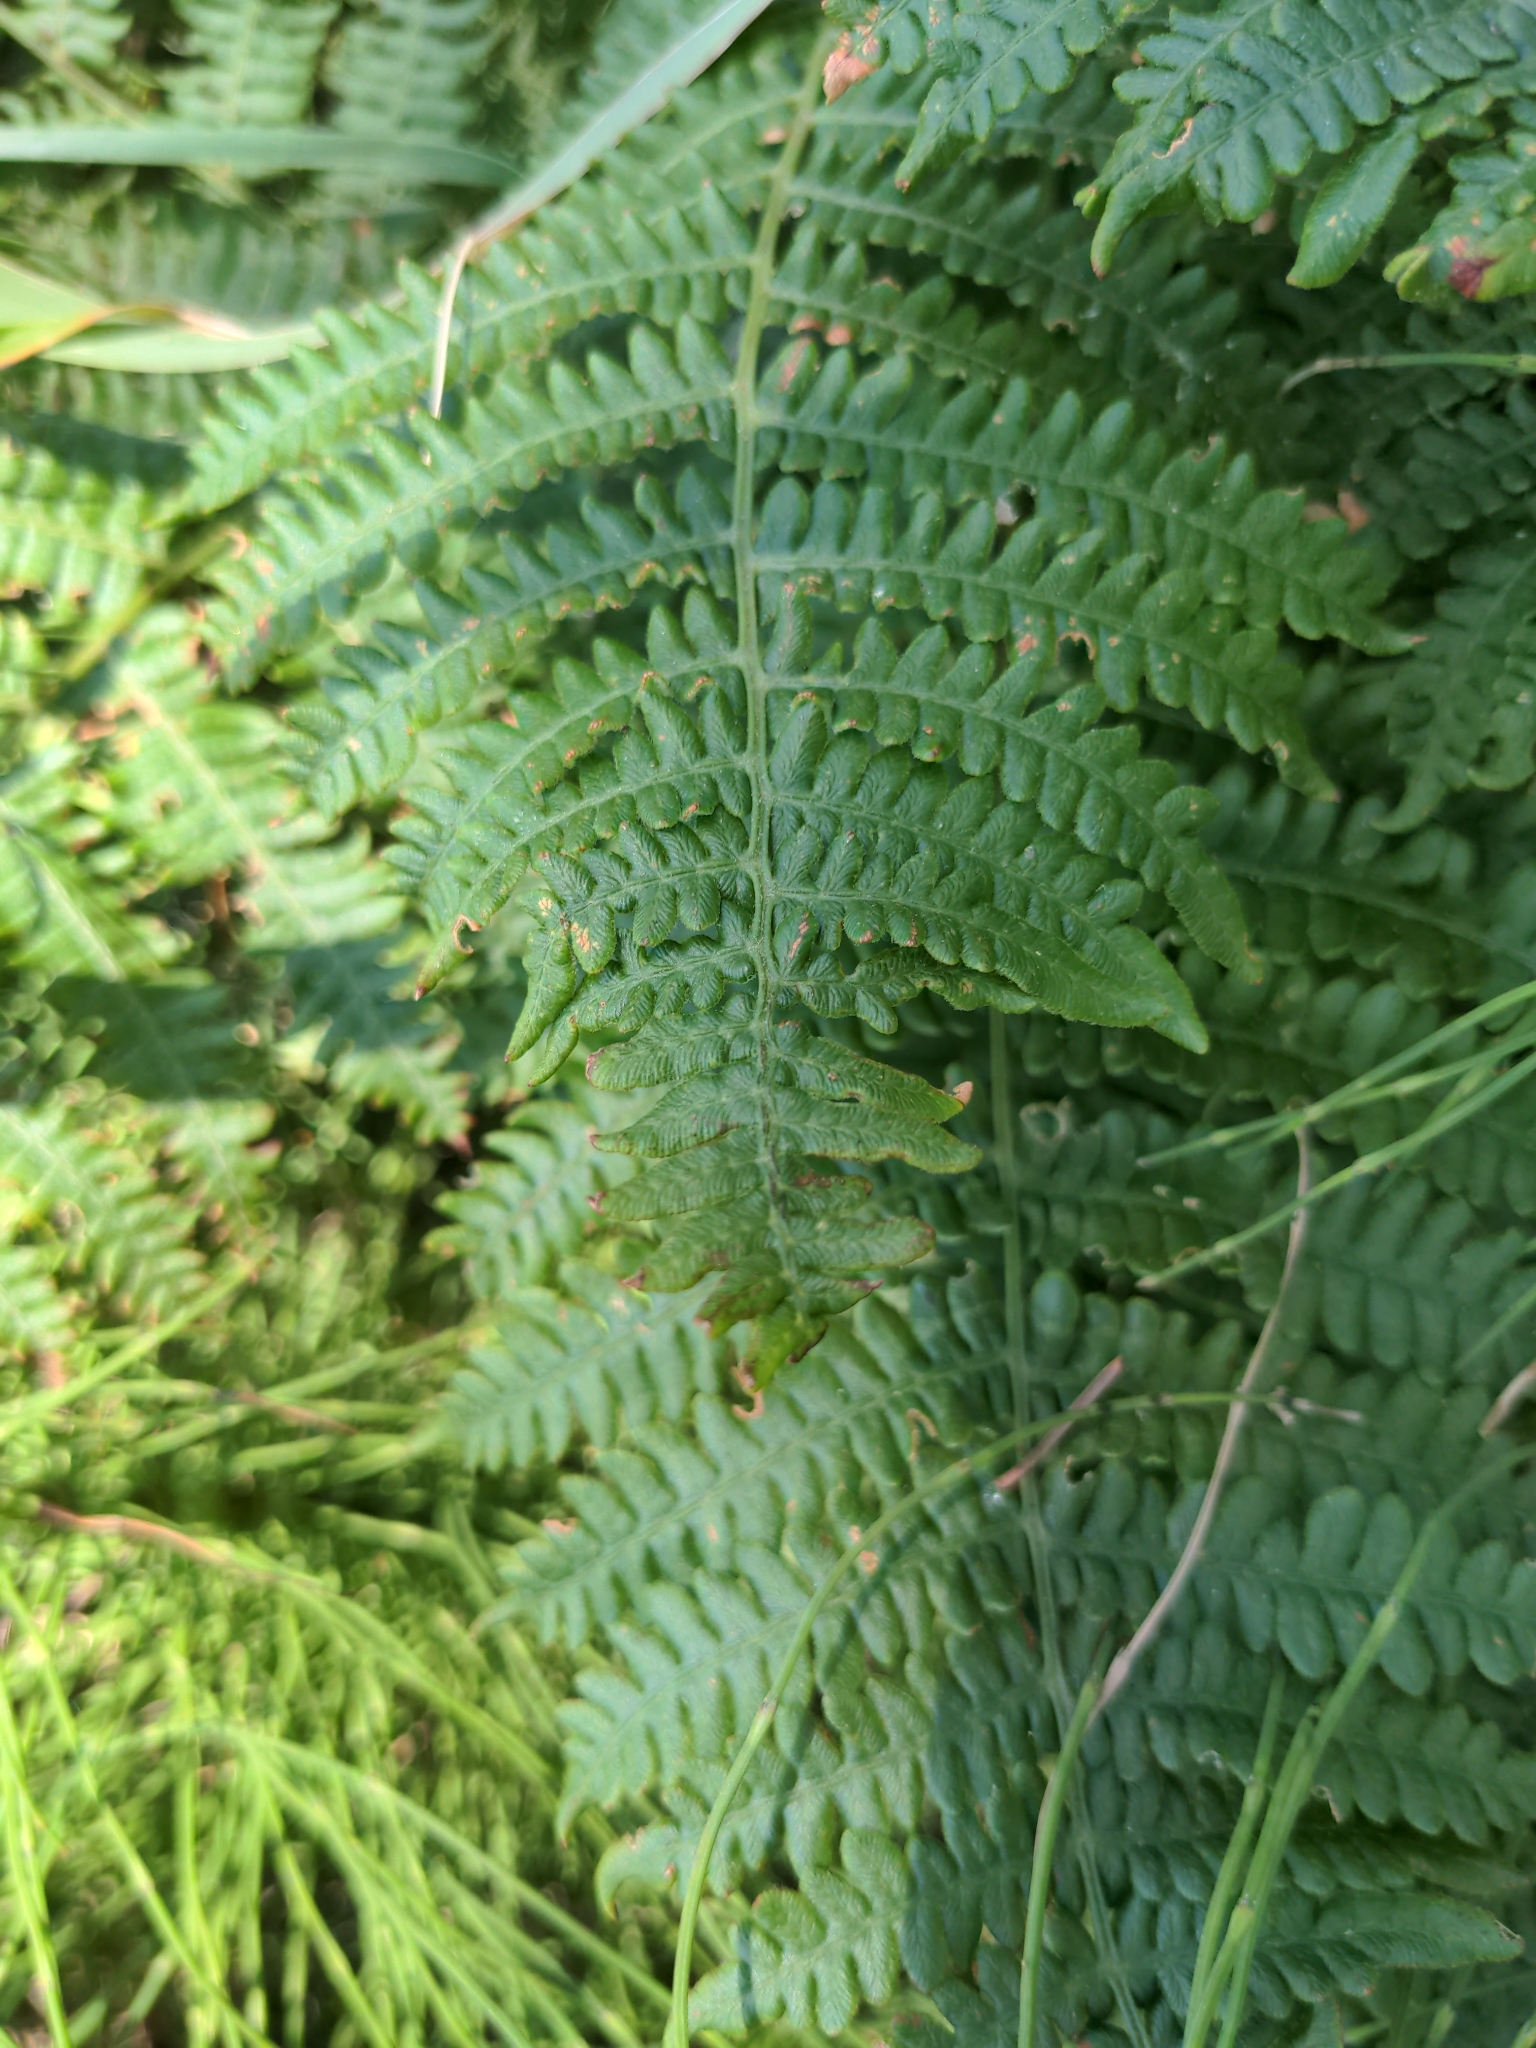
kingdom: Plantae
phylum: Tracheophyta
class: Polypodiopsida
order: Polypodiales
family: Dennstaedtiaceae
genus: Pteridium
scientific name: Pteridium aquilinum
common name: Bracken
